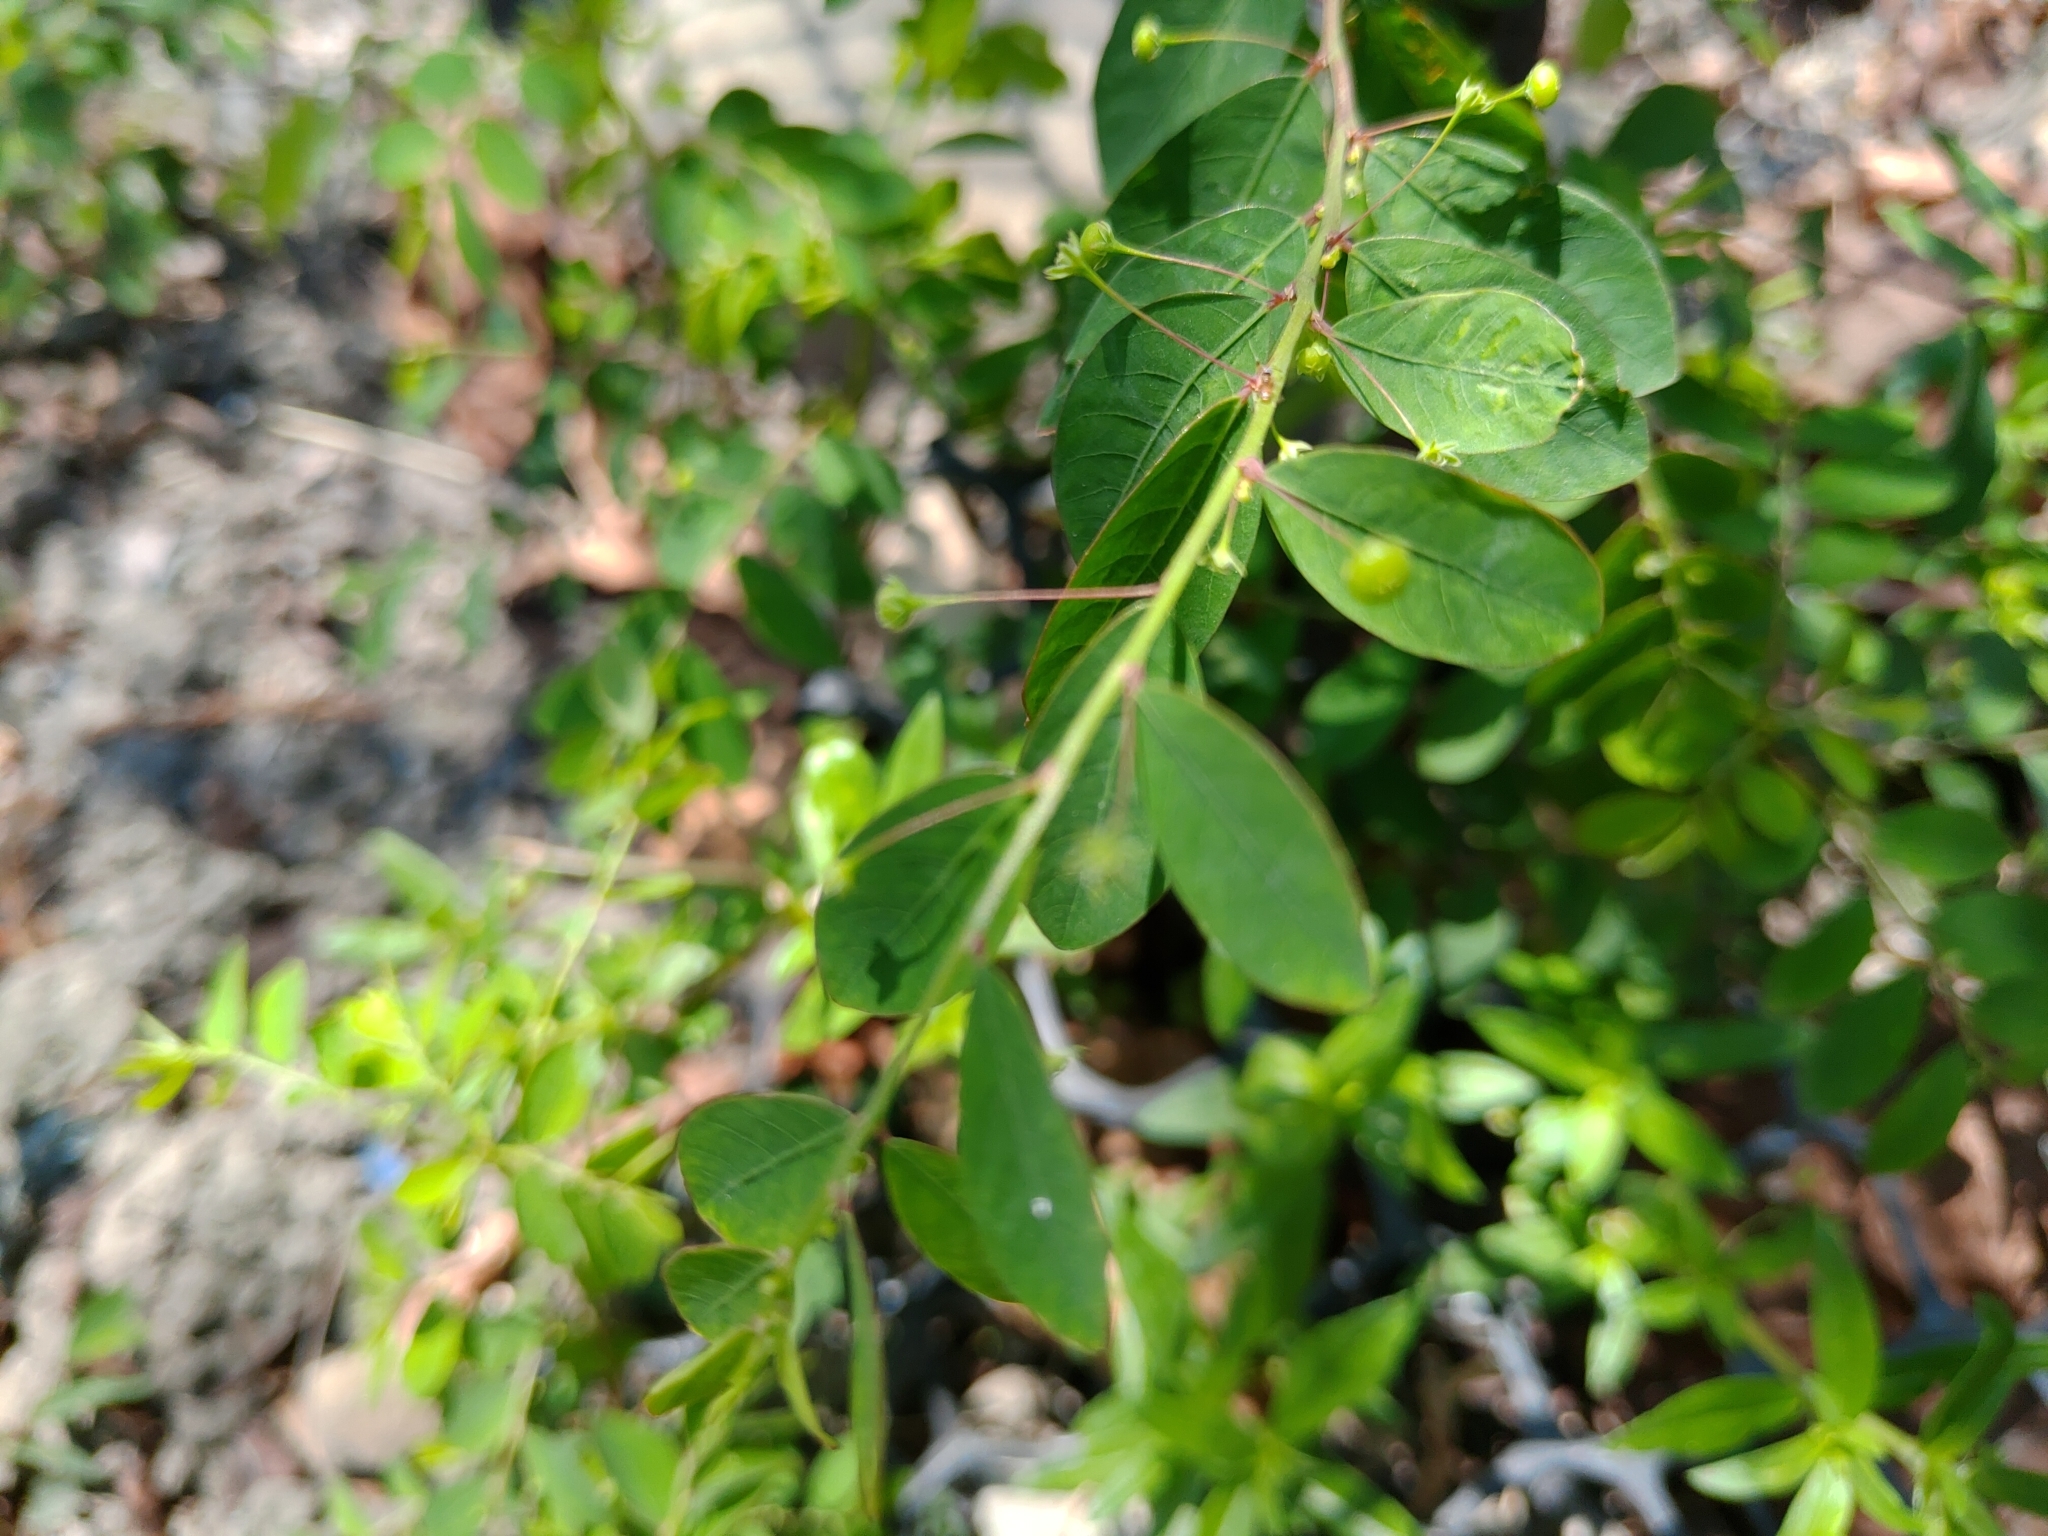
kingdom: Plantae
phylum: Tracheophyta
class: Magnoliopsida
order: Malpighiales
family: Phyllanthaceae
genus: Phyllanthus
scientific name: Phyllanthus tenellus
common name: Mascarene island leaf-flower
